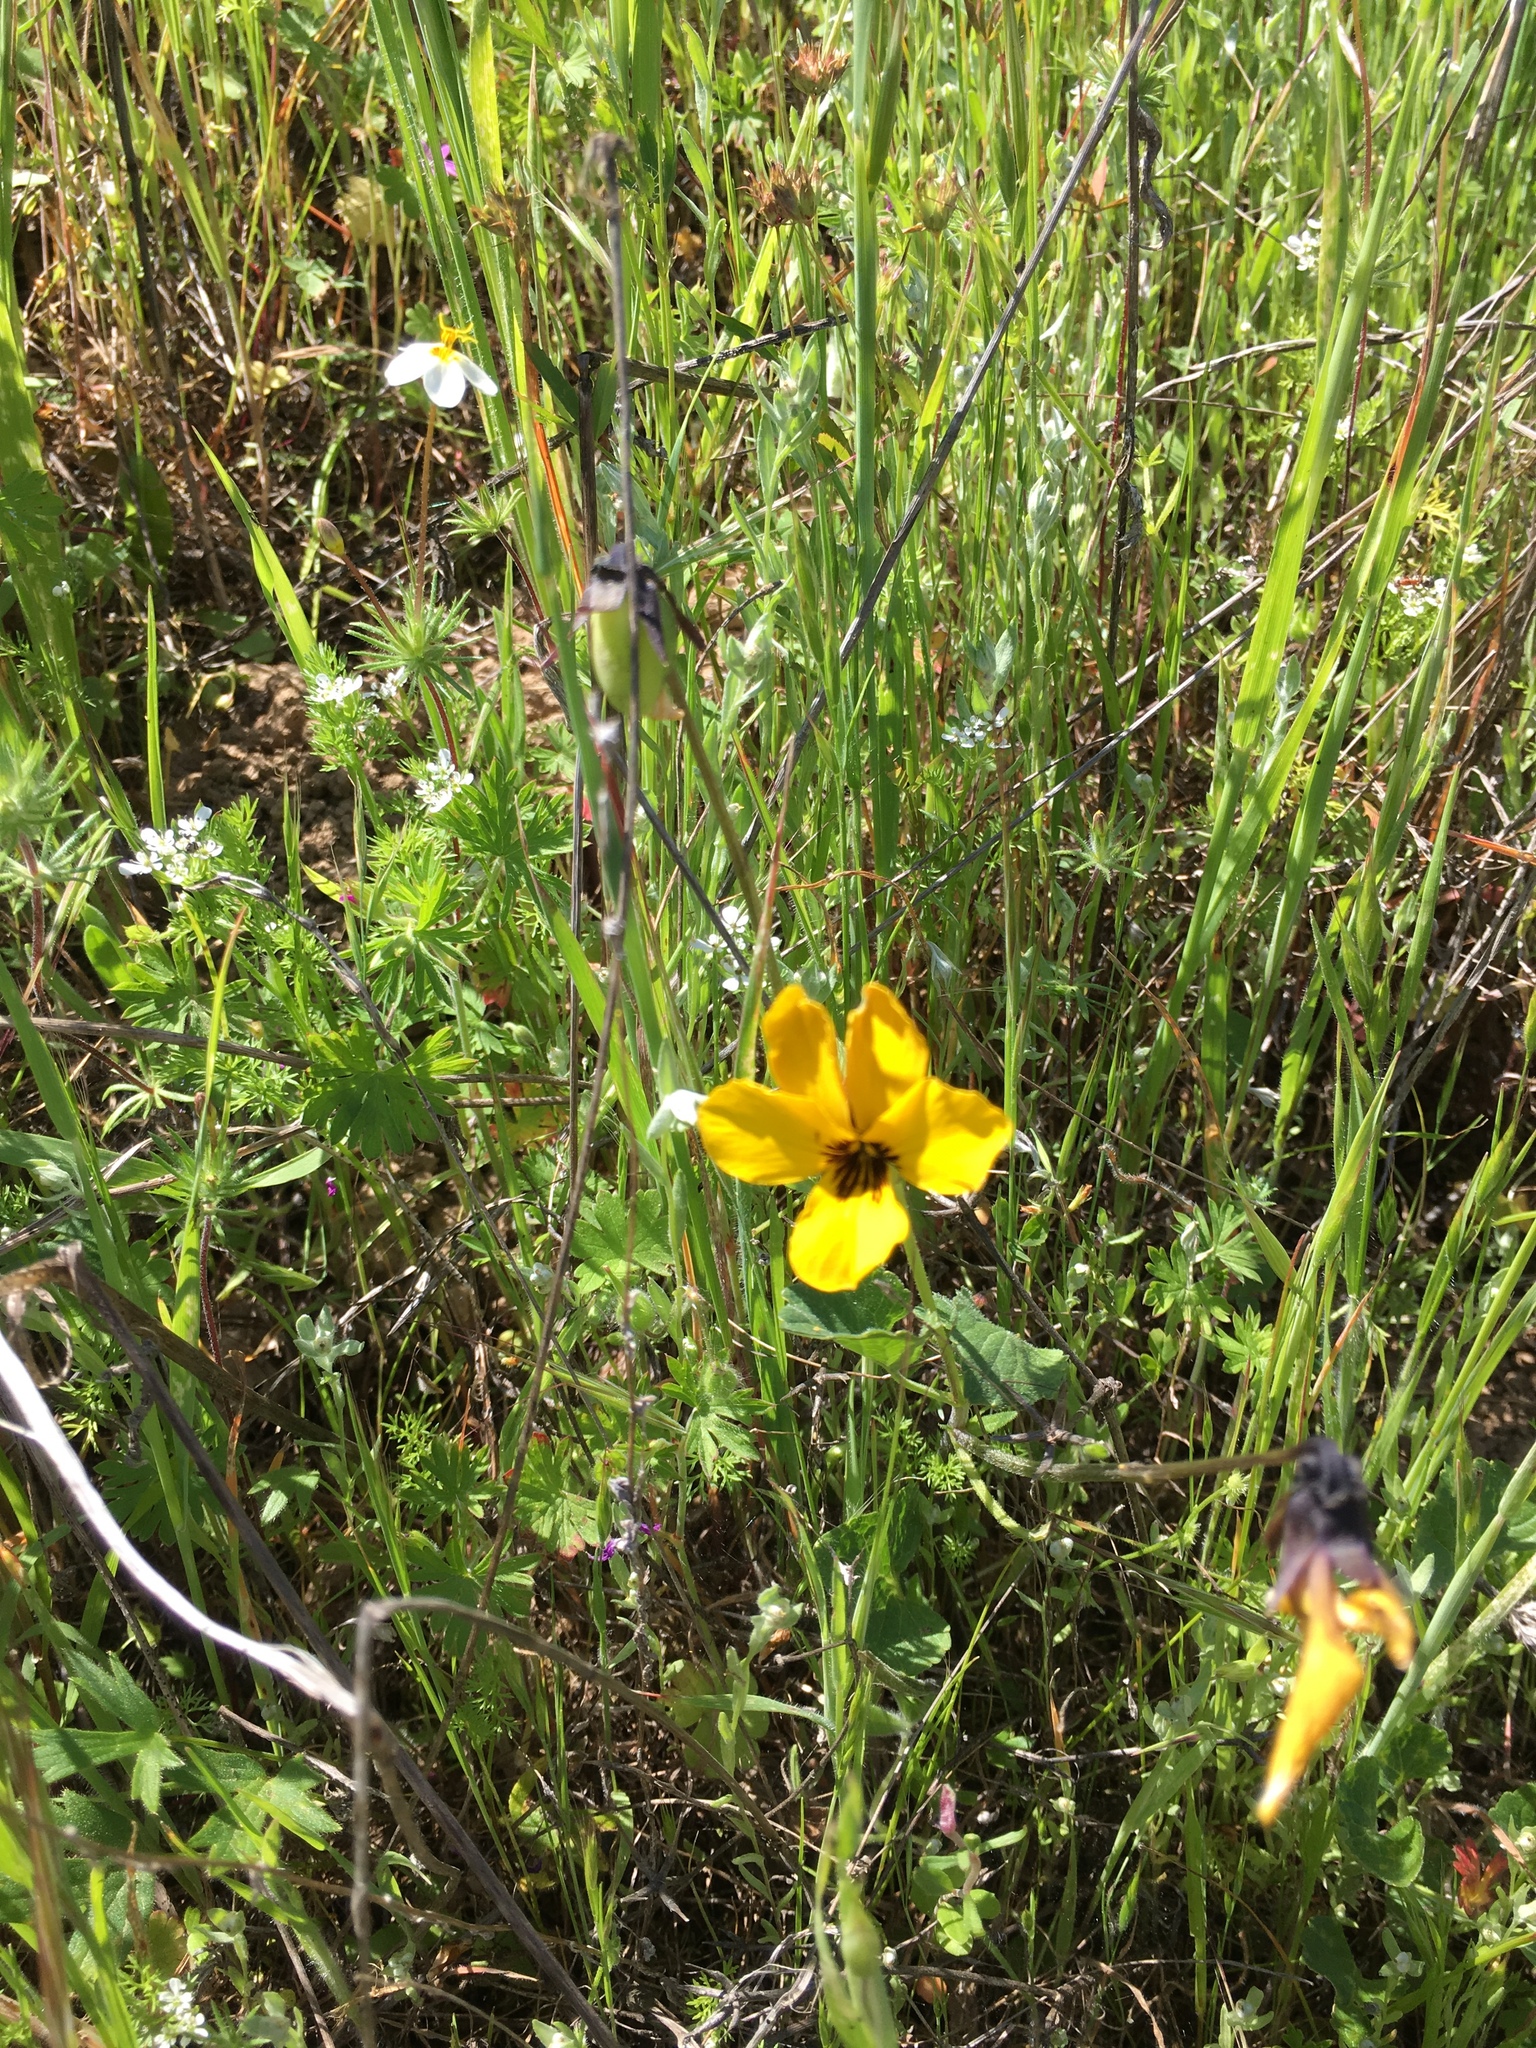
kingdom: Plantae
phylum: Tracheophyta
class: Magnoliopsida
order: Malpighiales
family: Violaceae
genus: Viola
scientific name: Viola pedunculata
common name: California golden violet
